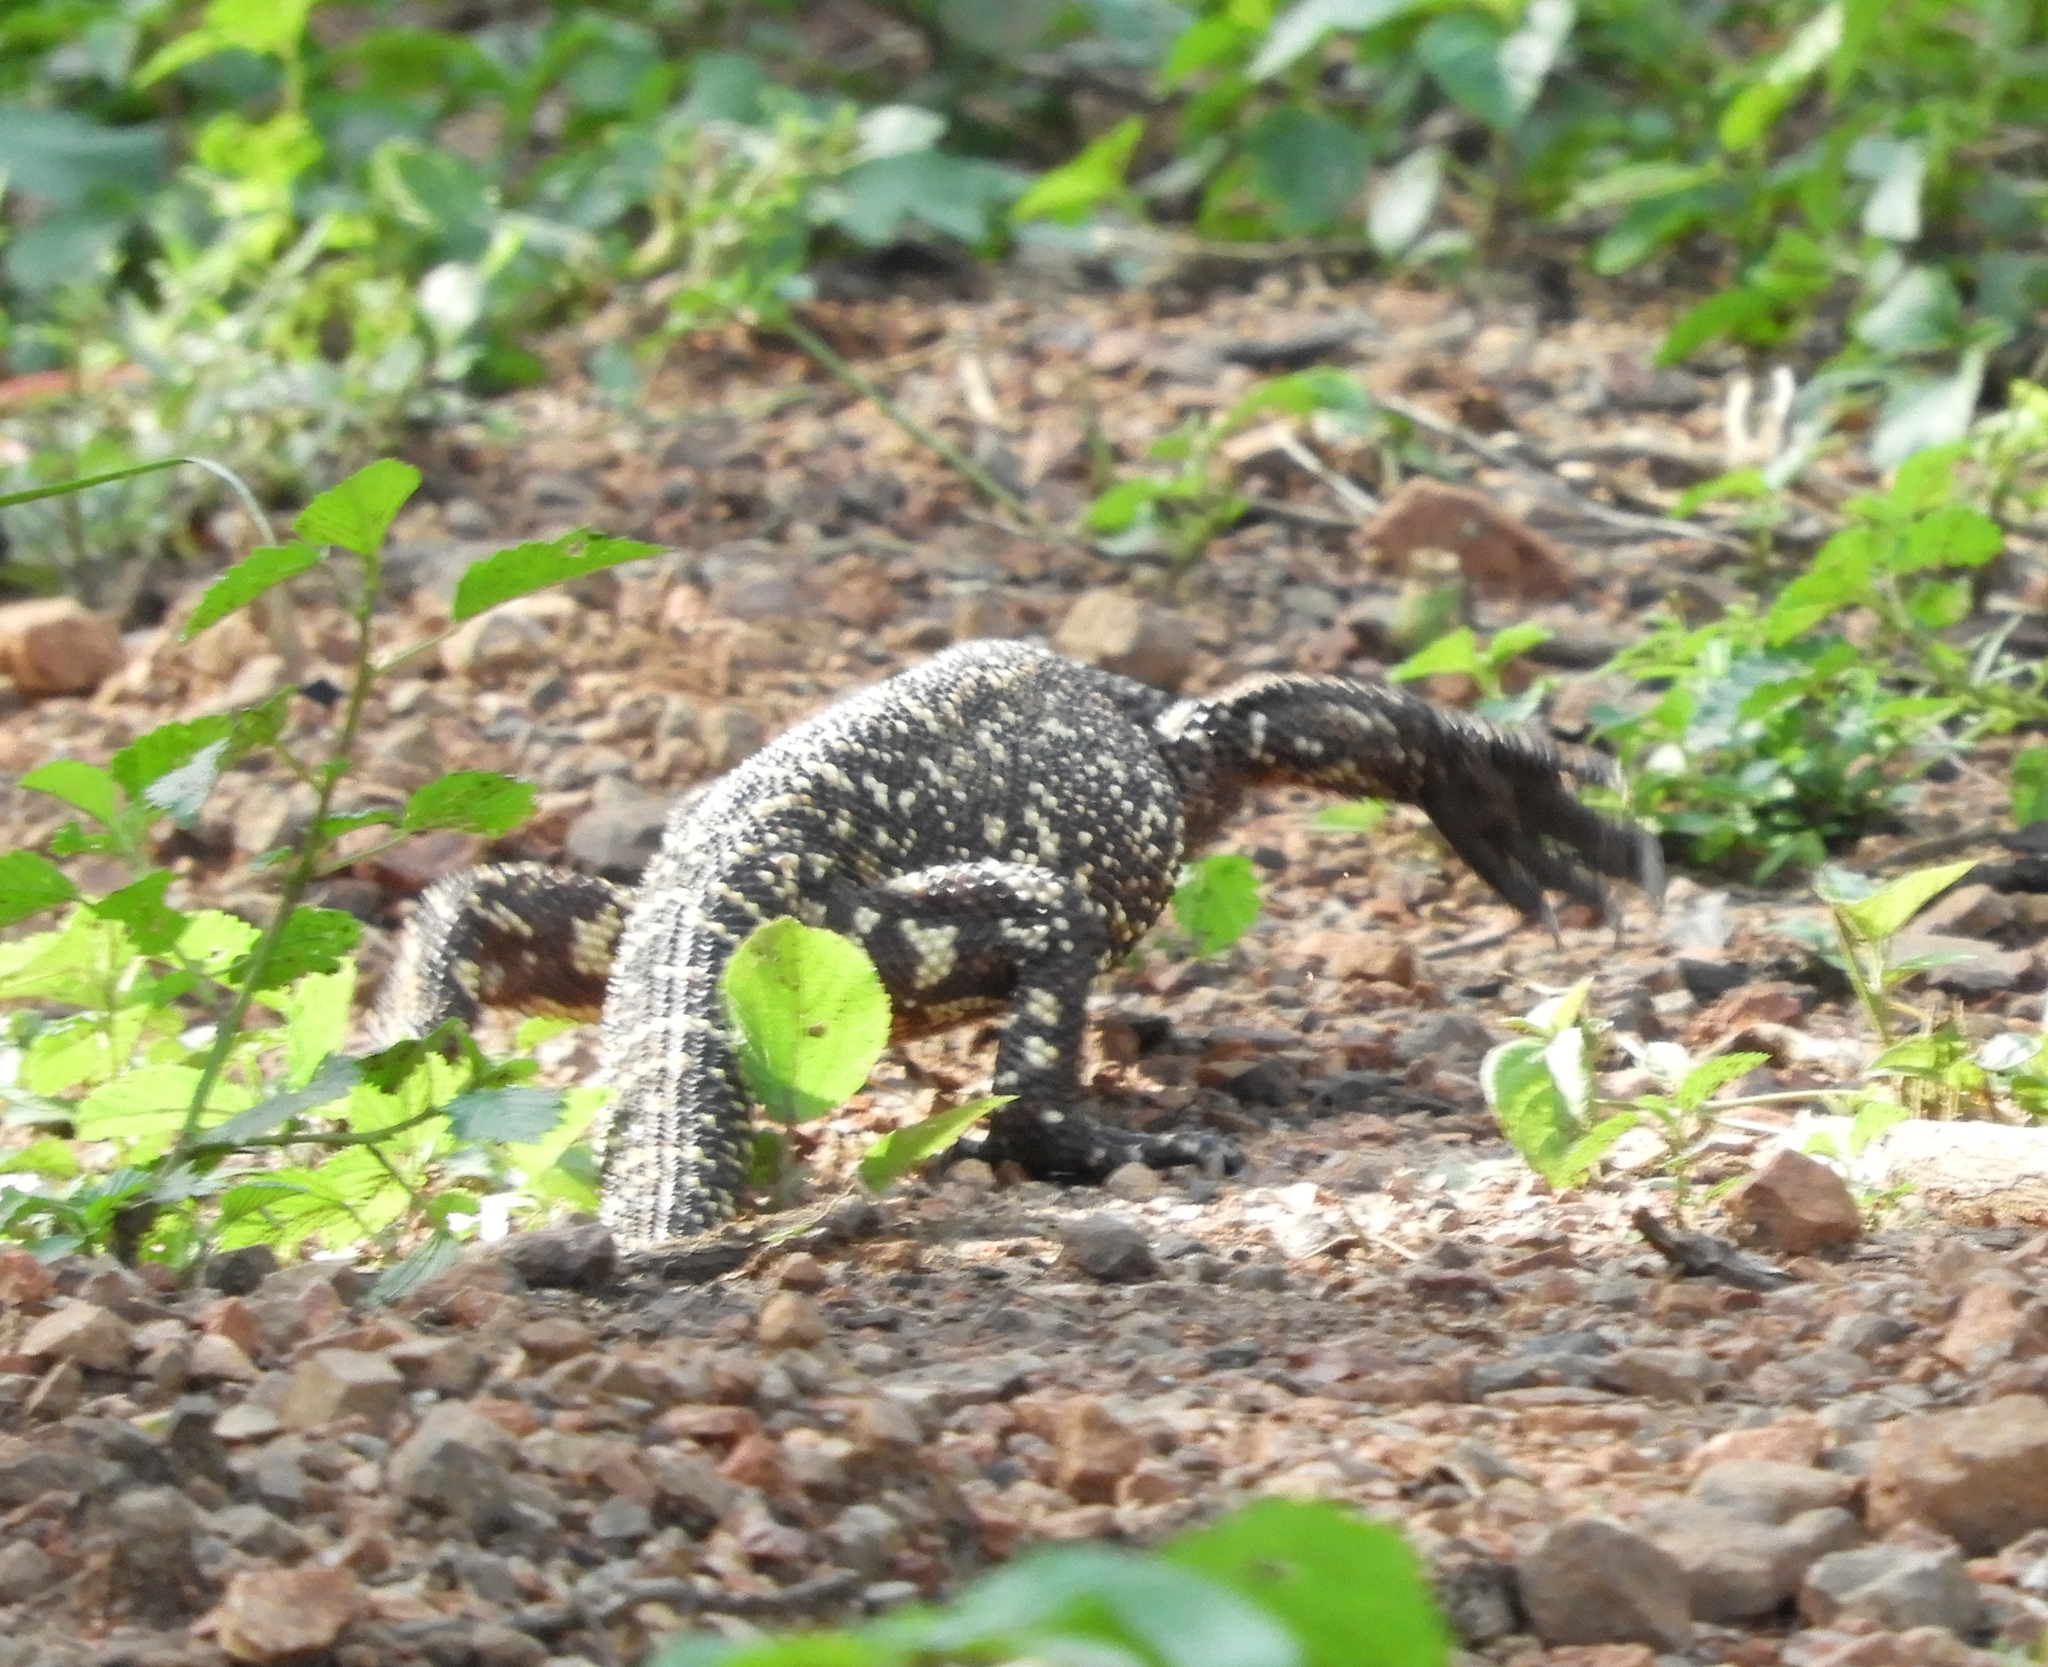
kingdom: Animalia
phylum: Chordata
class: Squamata
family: Helodermatidae
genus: Heloderma
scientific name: Heloderma horridum
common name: Mexican beaded lizard
